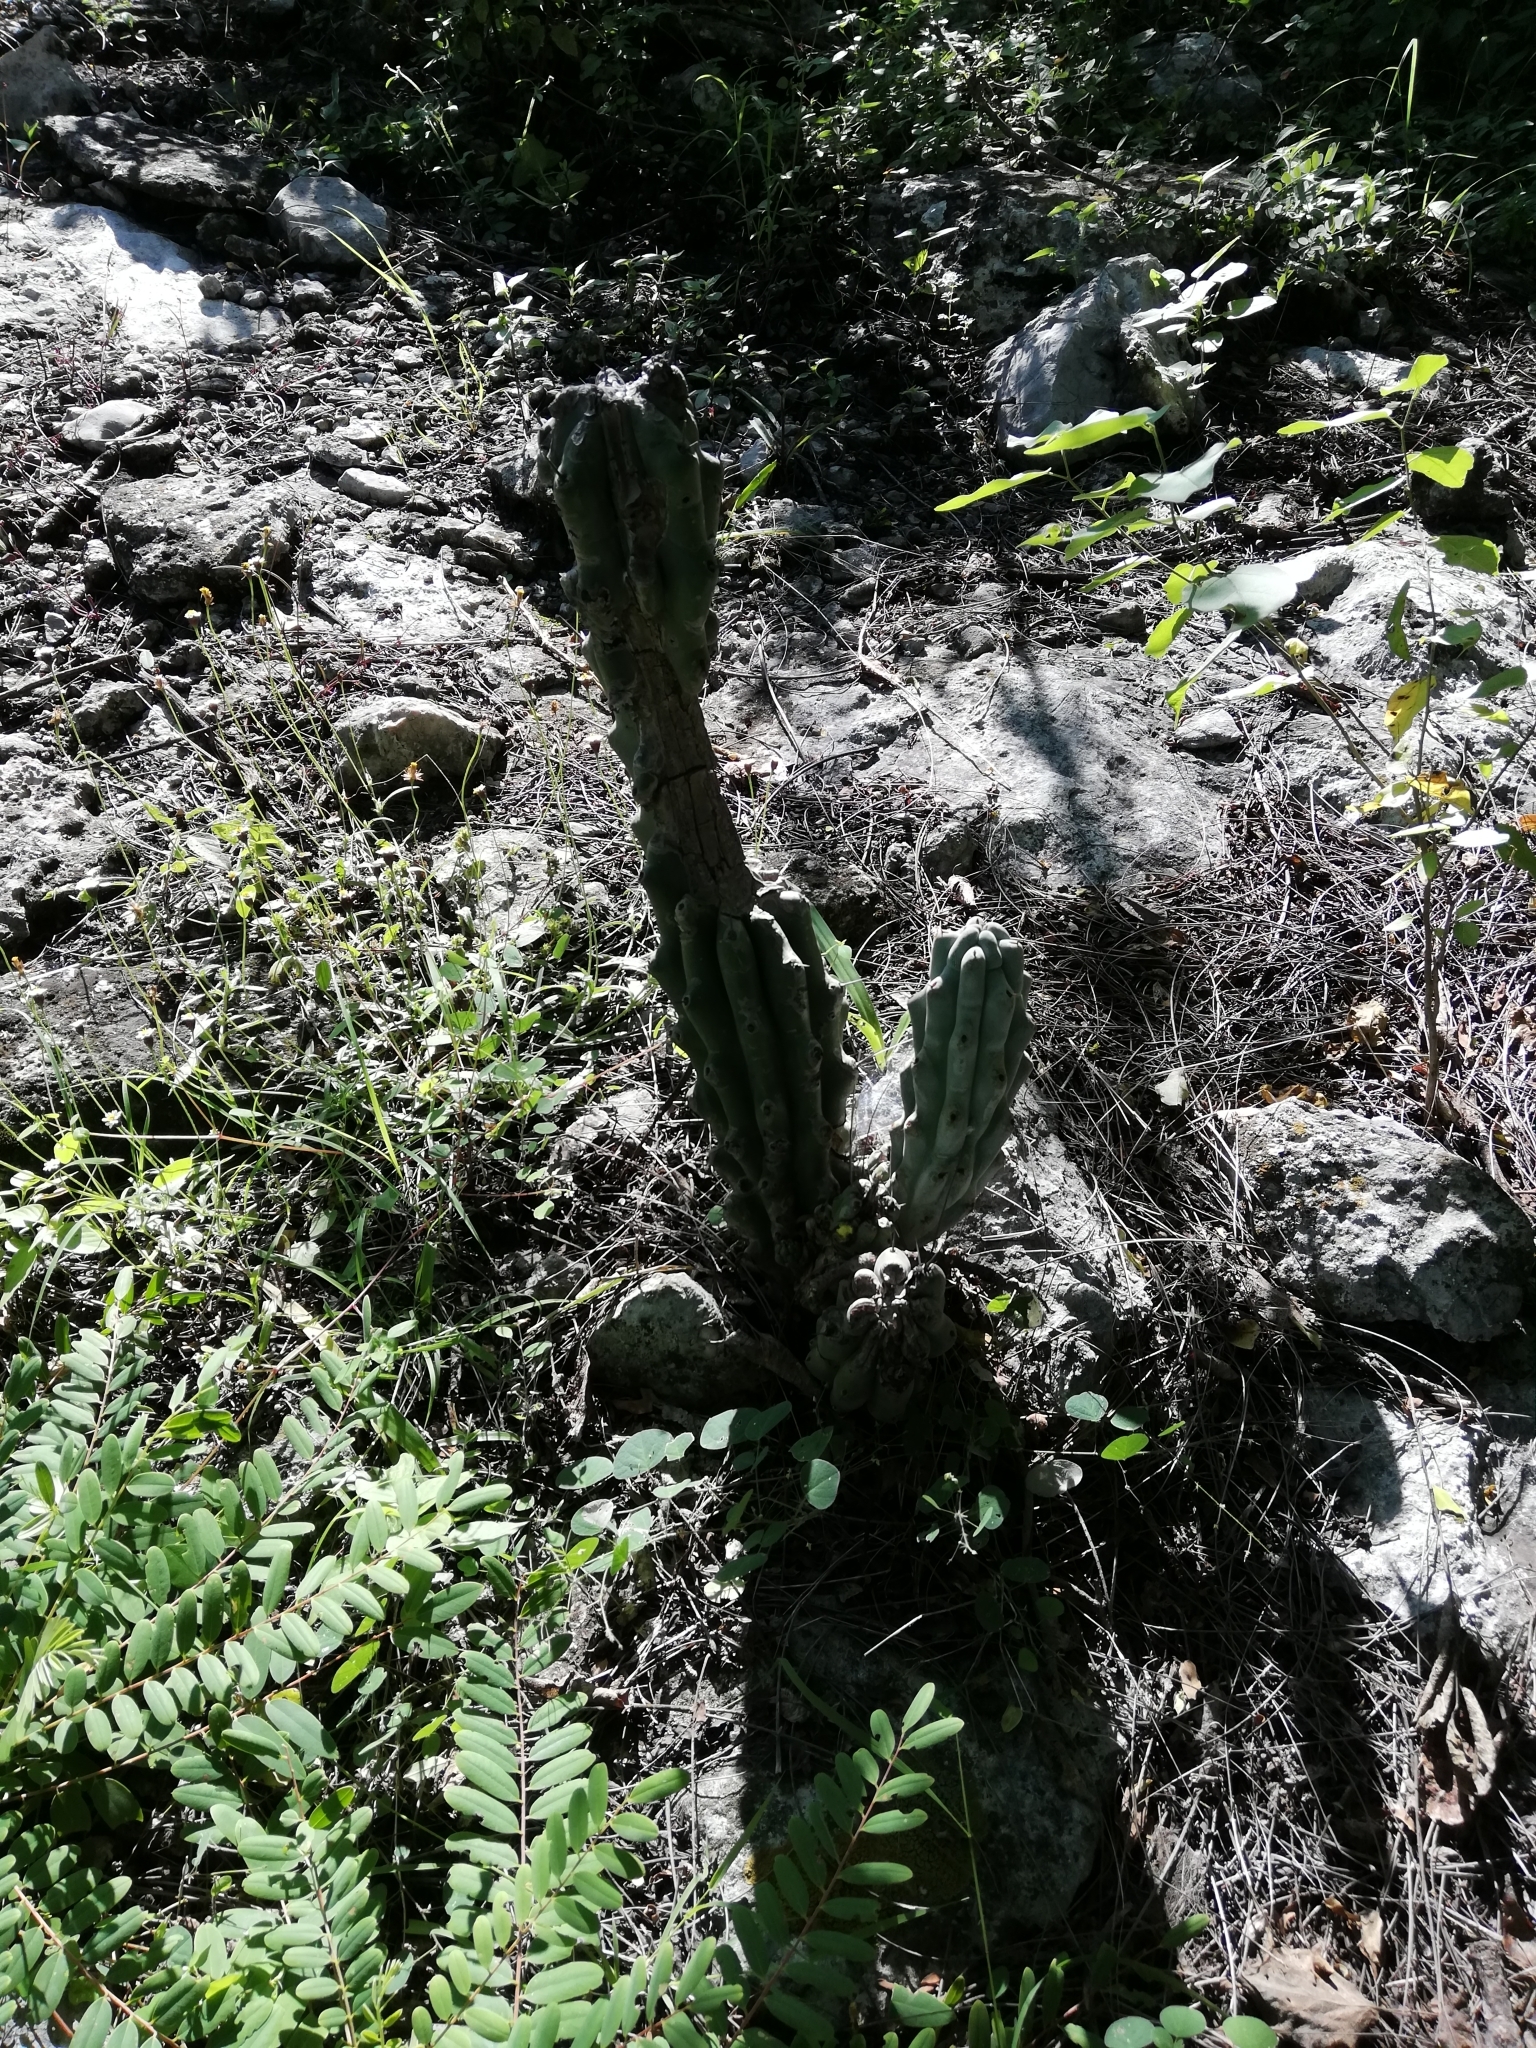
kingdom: Plantae
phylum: Tracheophyta
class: Magnoliopsida
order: Caryophyllales
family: Cactaceae
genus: Stenocereus
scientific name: Stenocereus beneckei
